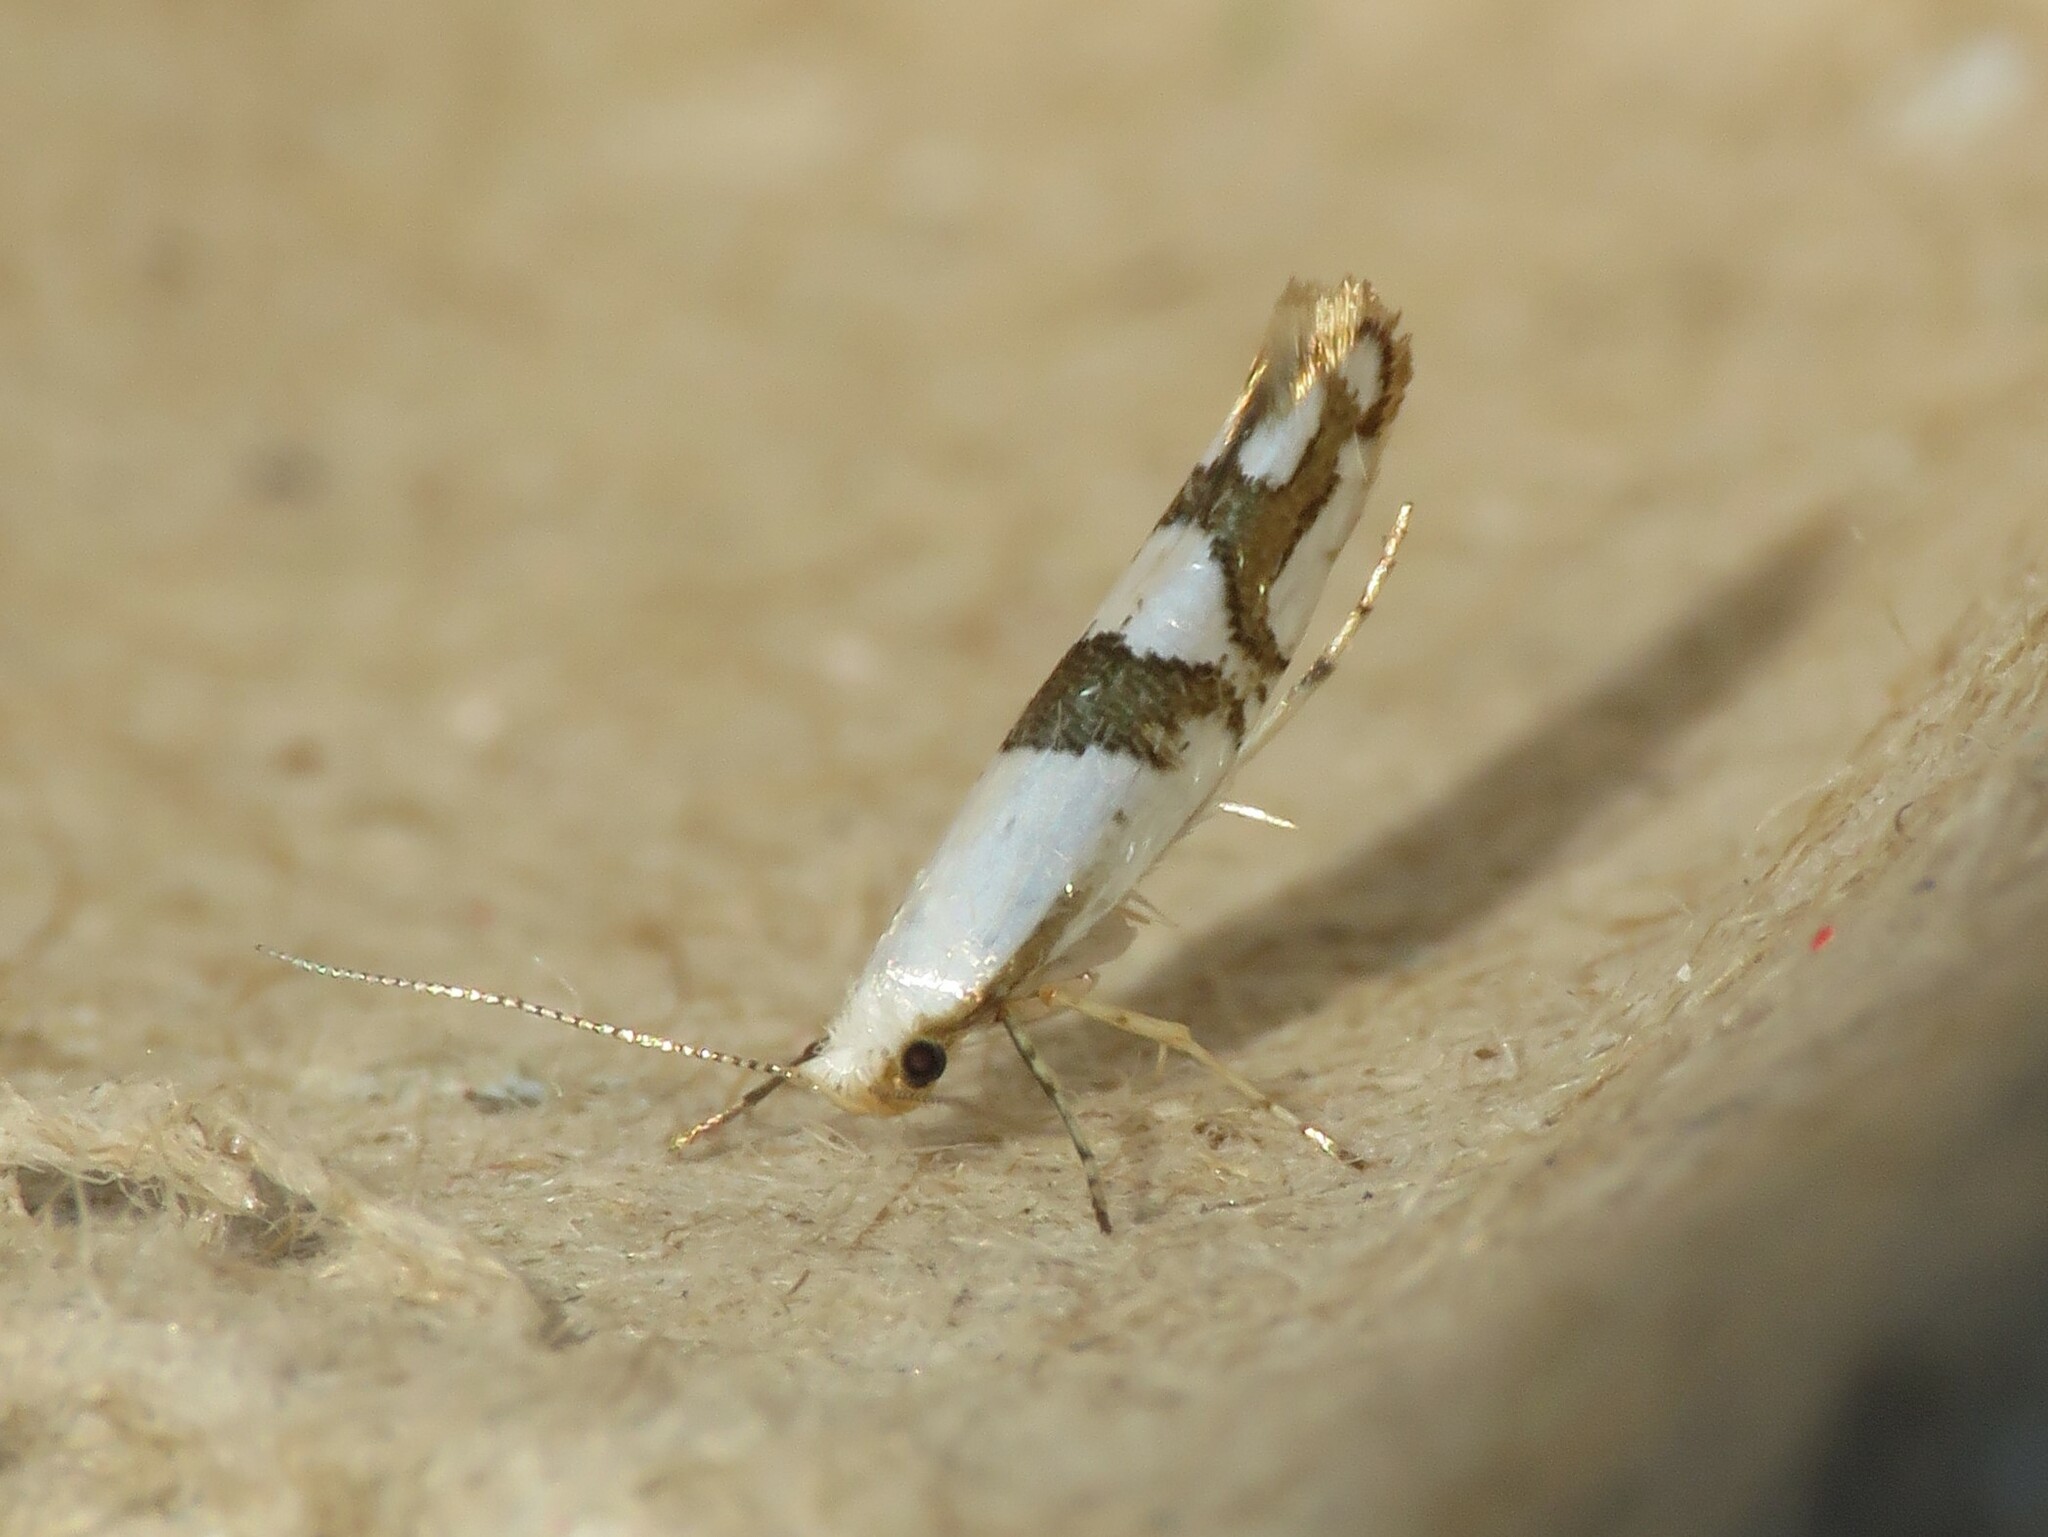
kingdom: Animalia
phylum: Arthropoda
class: Insecta
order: Lepidoptera
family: Argyresthiidae
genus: Argyresthia
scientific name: Argyresthia oreasella
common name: Cherry shoot borer moth
